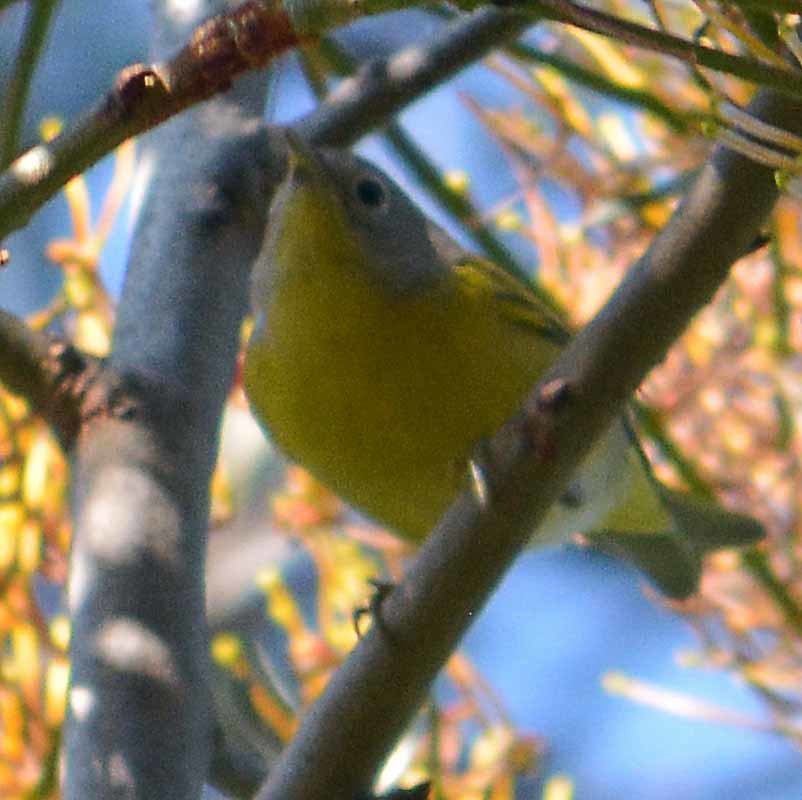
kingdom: Animalia
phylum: Chordata
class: Aves
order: Passeriformes
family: Parulidae
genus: Leiothlypis
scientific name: Leiothlypis ruficapilla
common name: Nashville warbler
